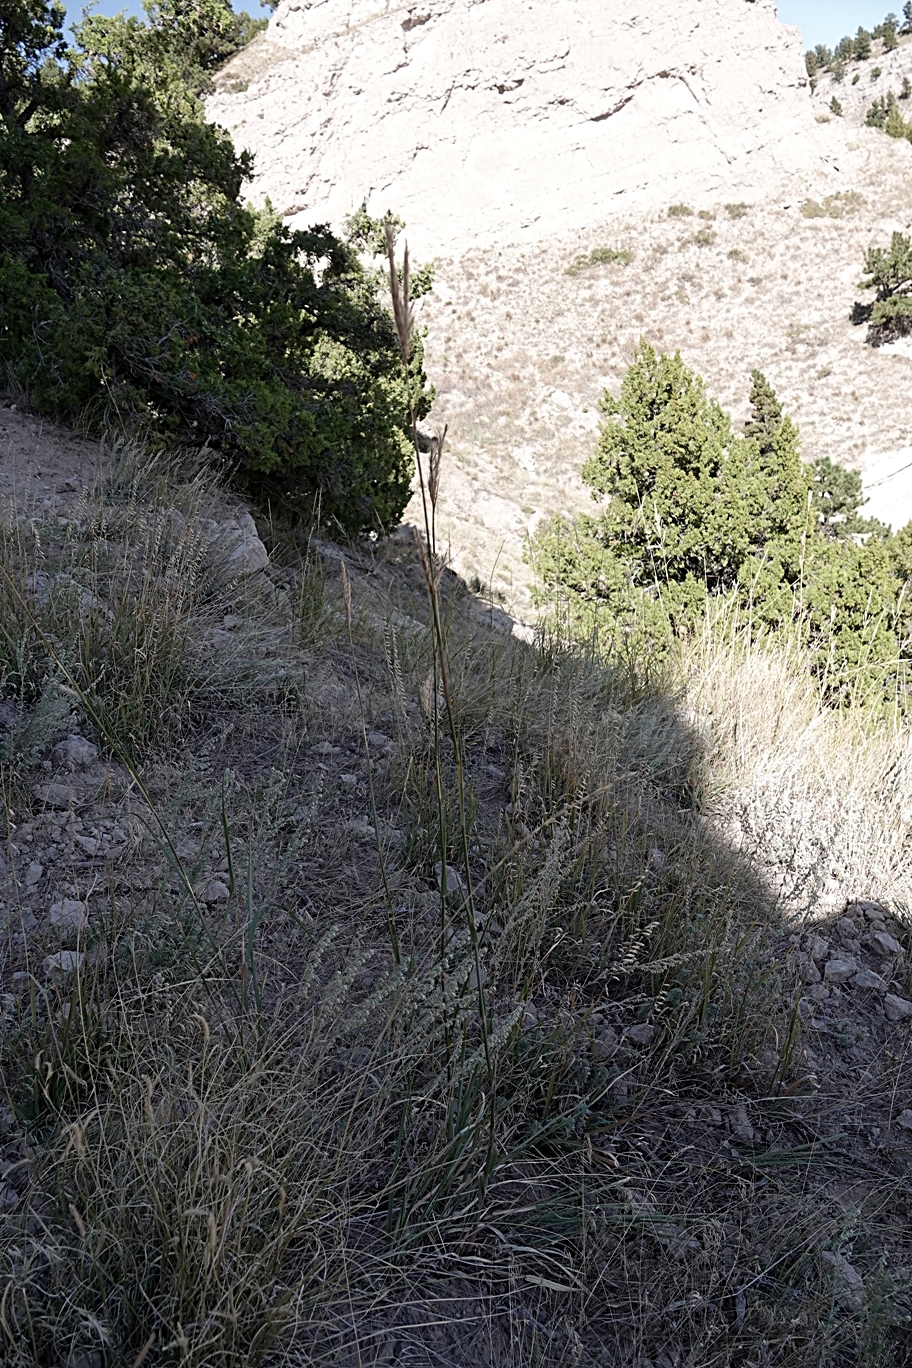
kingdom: Plantae
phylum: Tracheophyta
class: Liliopsida
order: Poales
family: Poaceae
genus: Andropogon
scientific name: Andropogon hallii
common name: Sand bluestem
